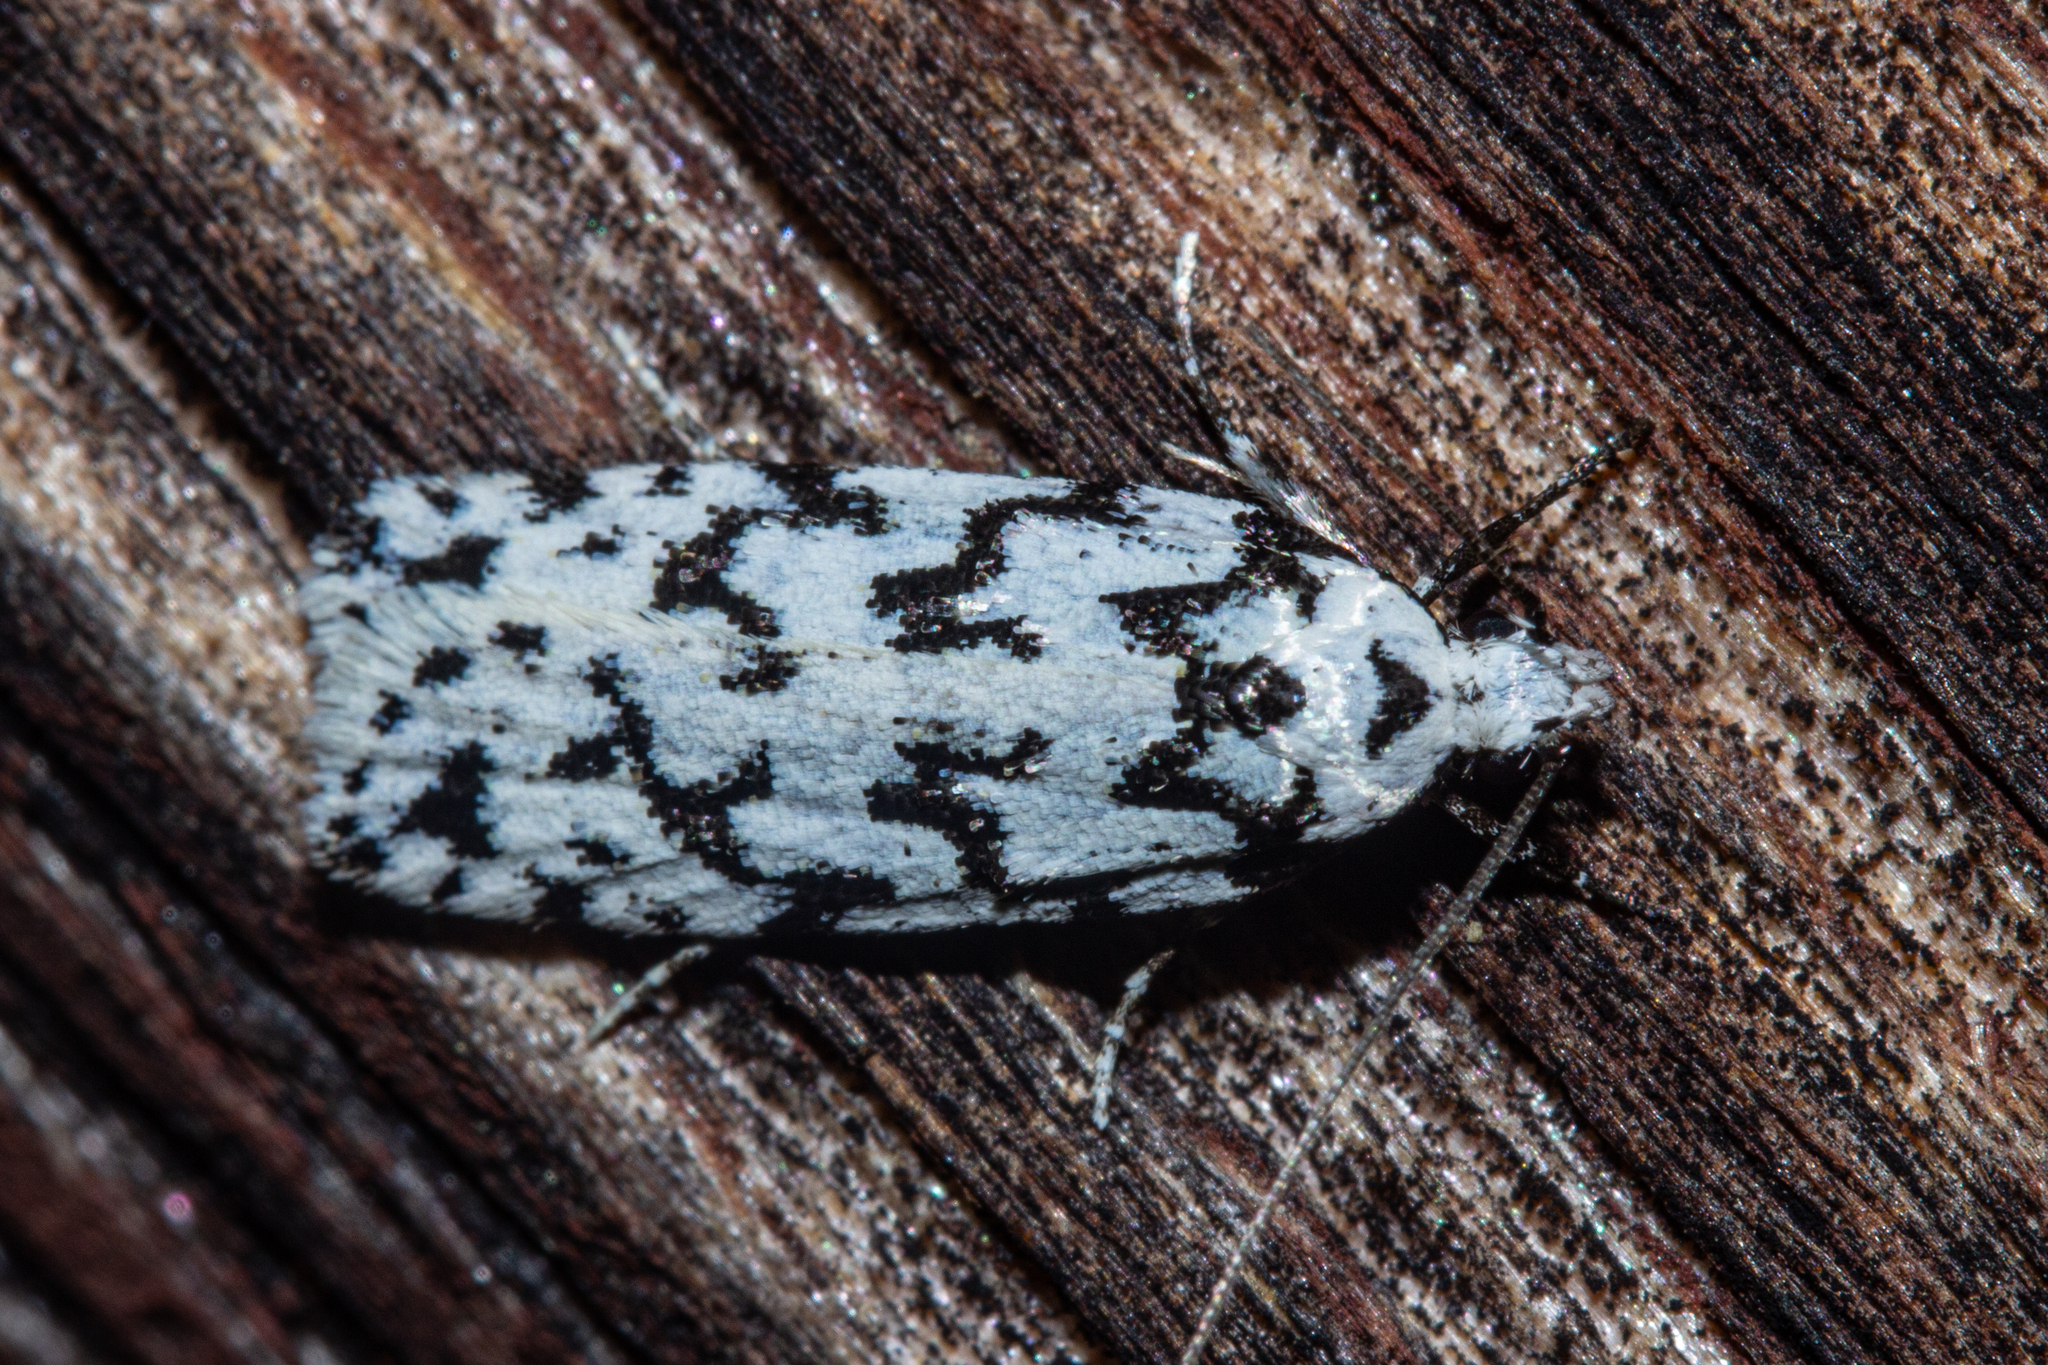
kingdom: Animalia
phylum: Arthropoda
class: Insecta
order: Lepidoptera
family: Oecophoridae
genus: Izatha
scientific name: Izatha katadiktya
